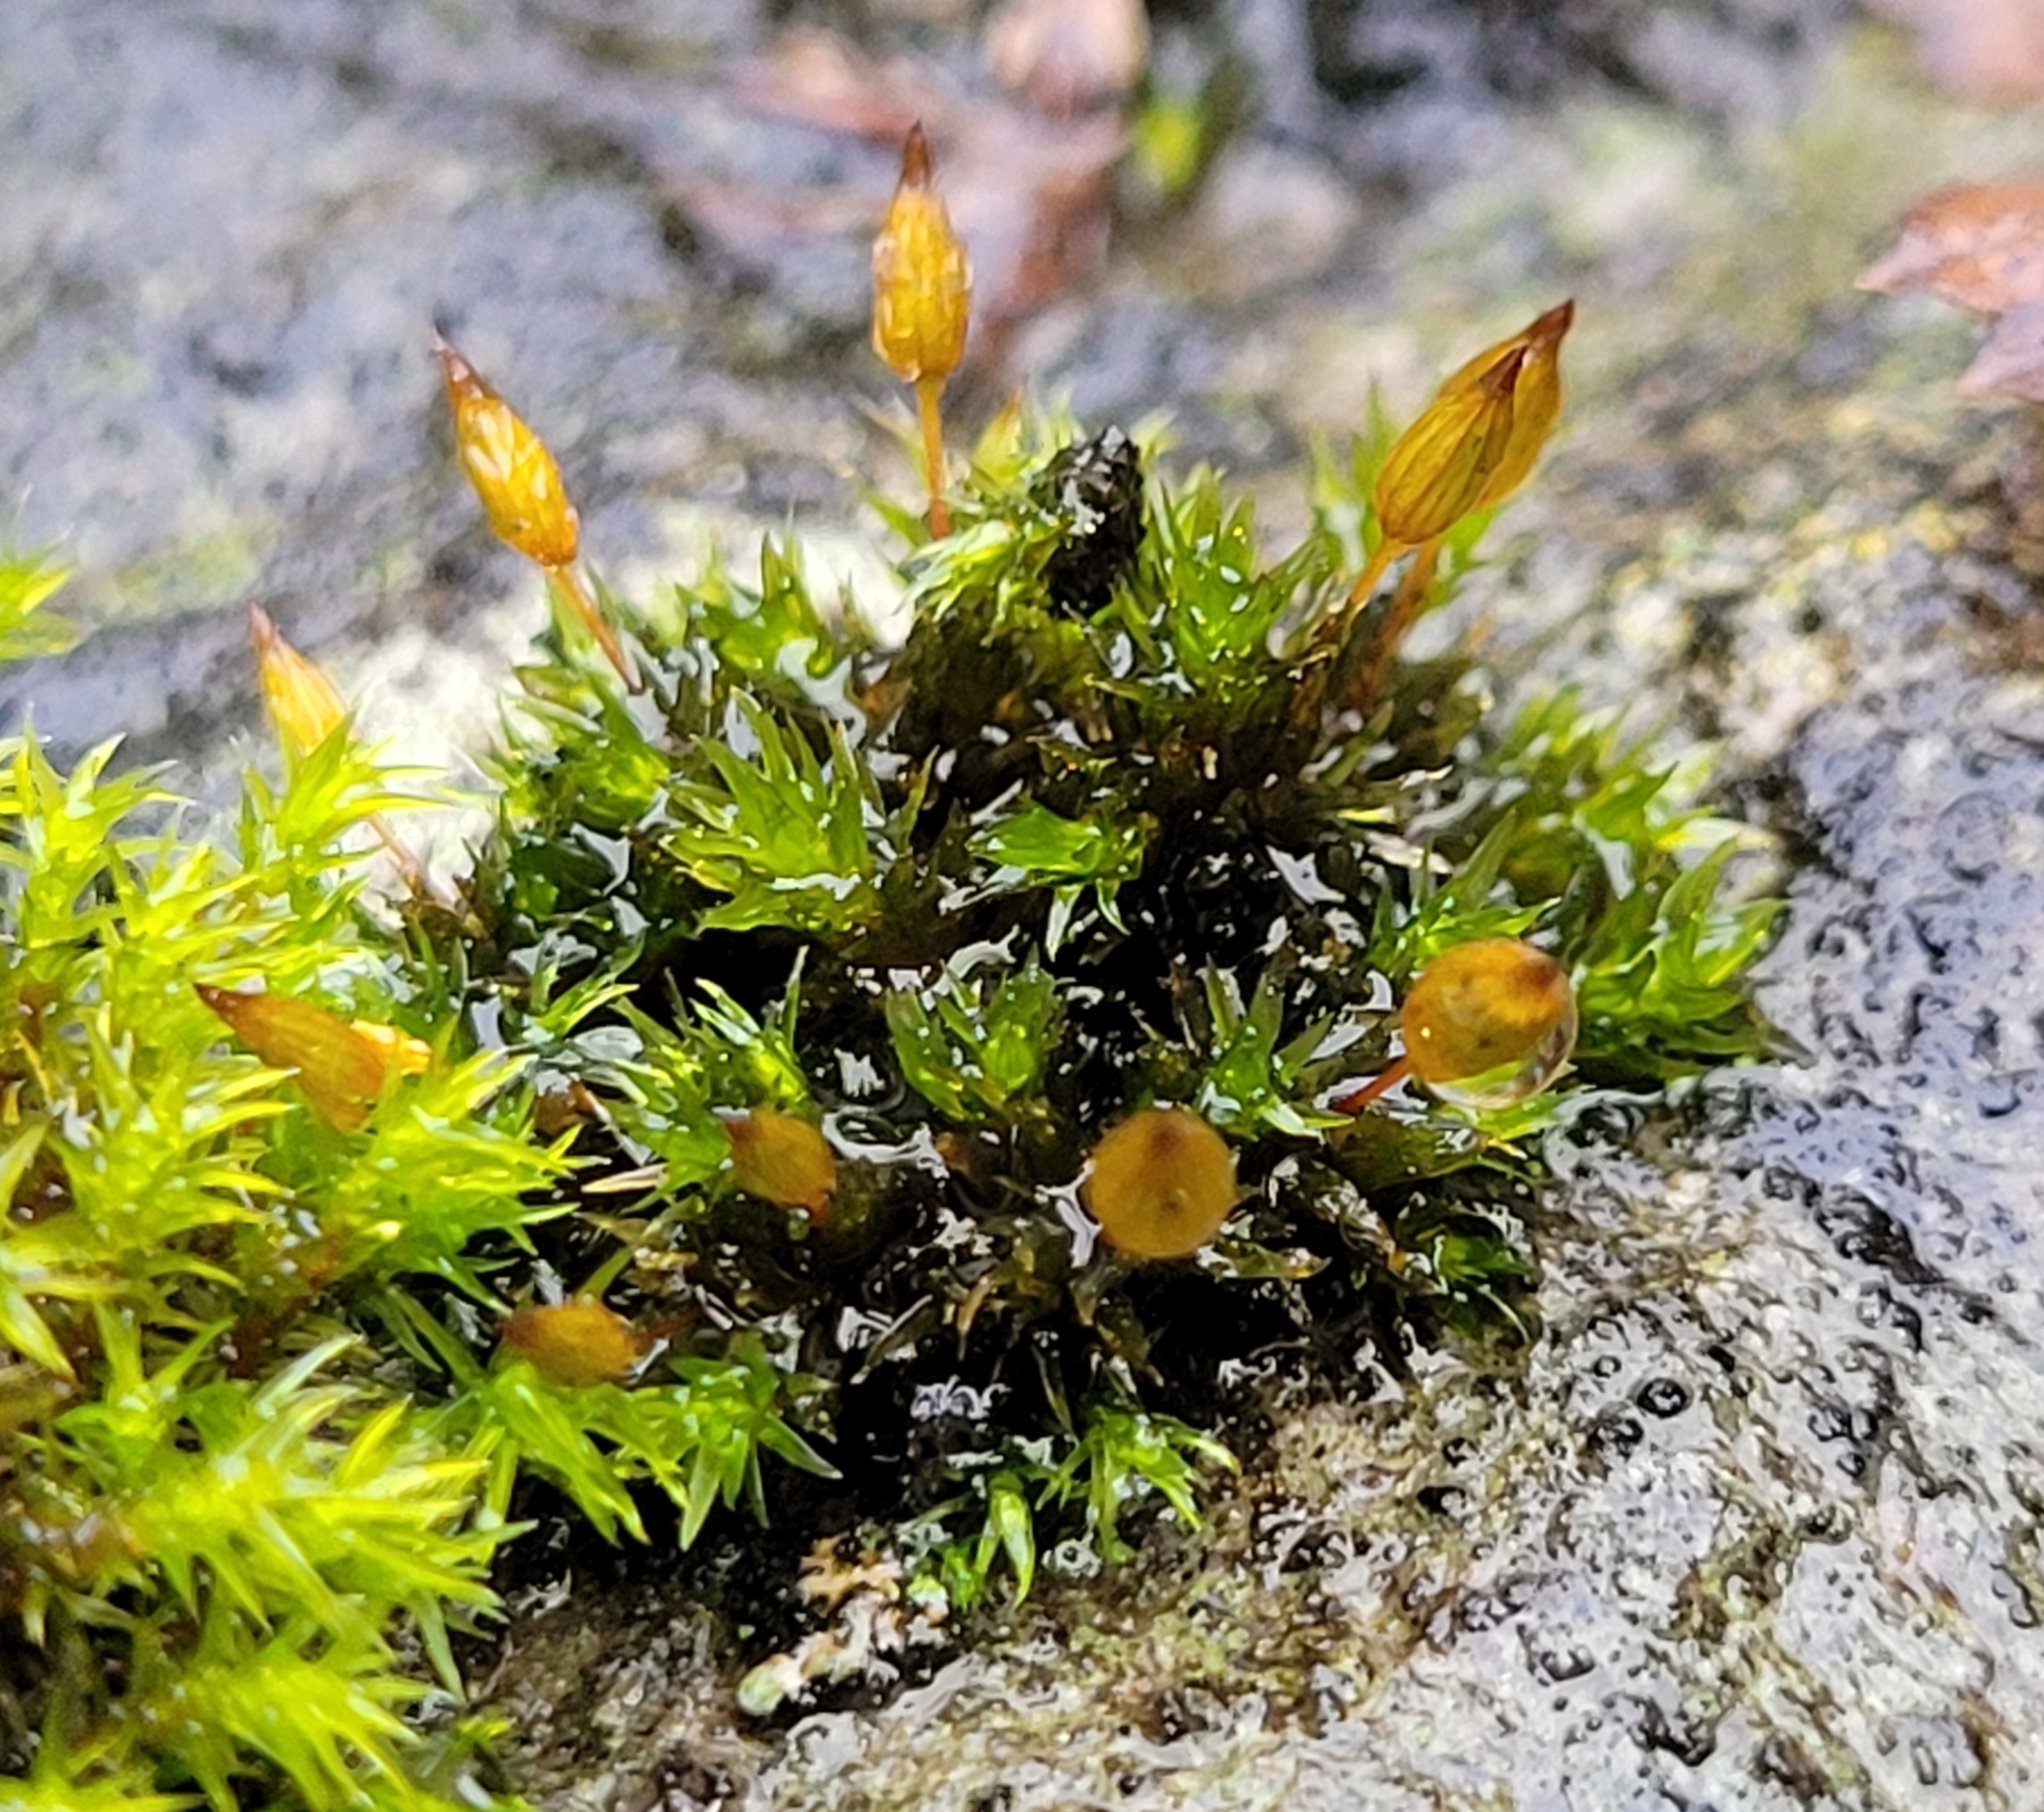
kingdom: Plantae
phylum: Bryophyta
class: Bryopsida
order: Orthotrichales
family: Orthotrichaceae
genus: Orthotrichum
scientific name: Orthotrichum anomalum
